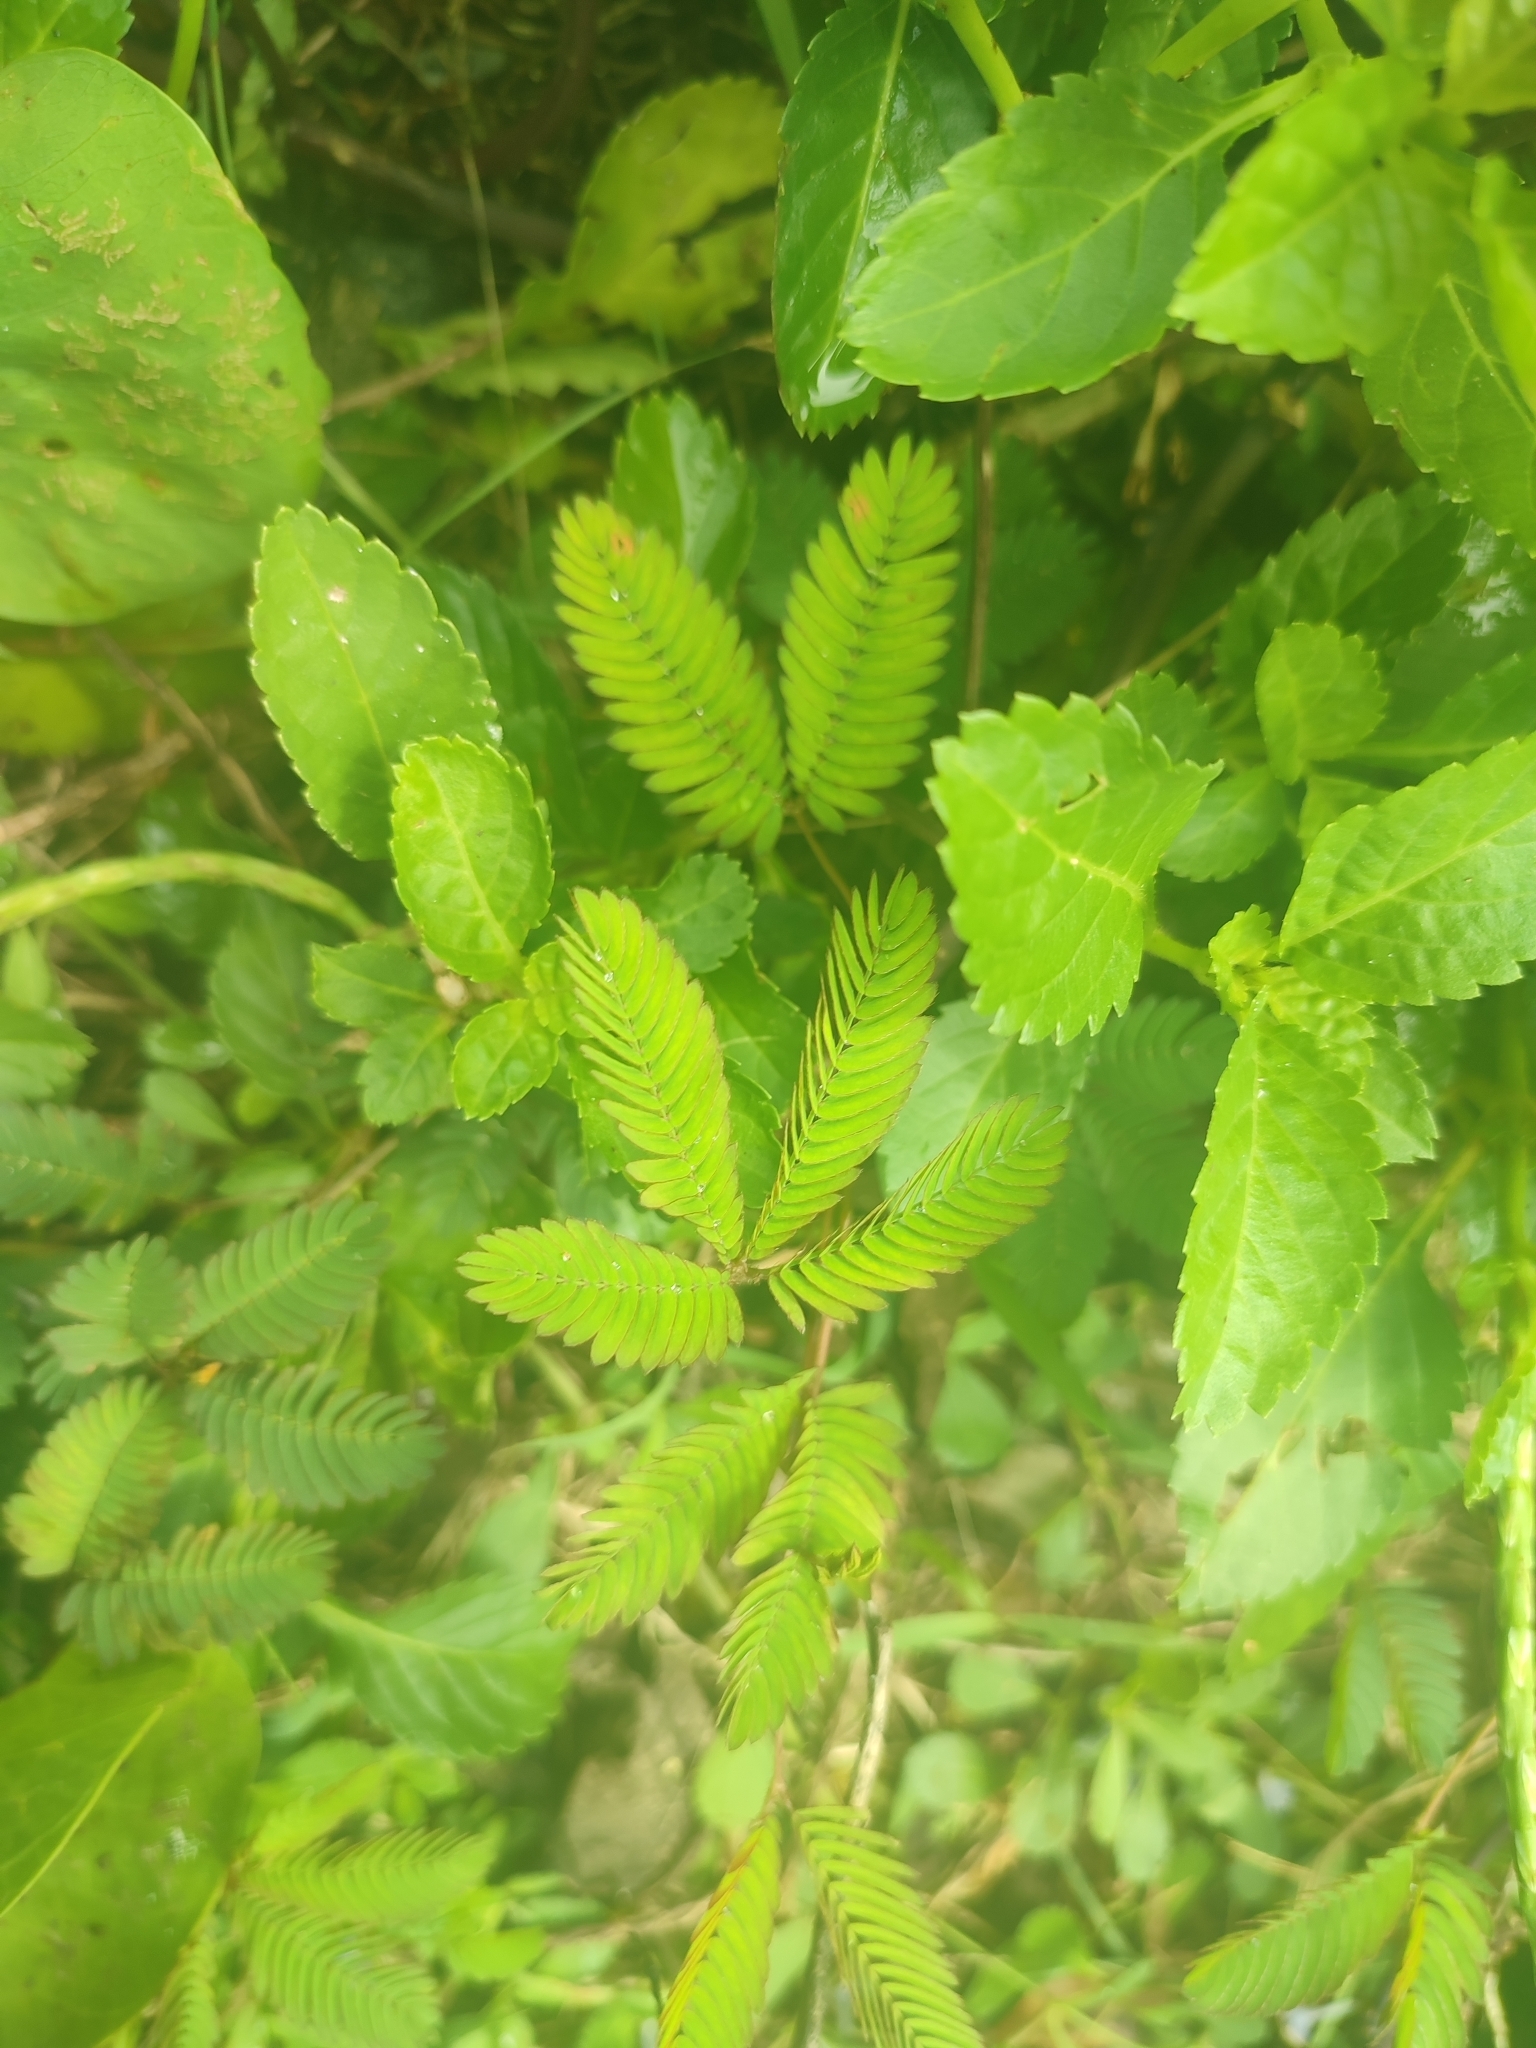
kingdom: Plantae
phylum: Tracheophyta
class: Magnoliopsida
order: Fabales
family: Fabaceae
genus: Mimosa
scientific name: Mimosa pudica
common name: Sensitive plant
